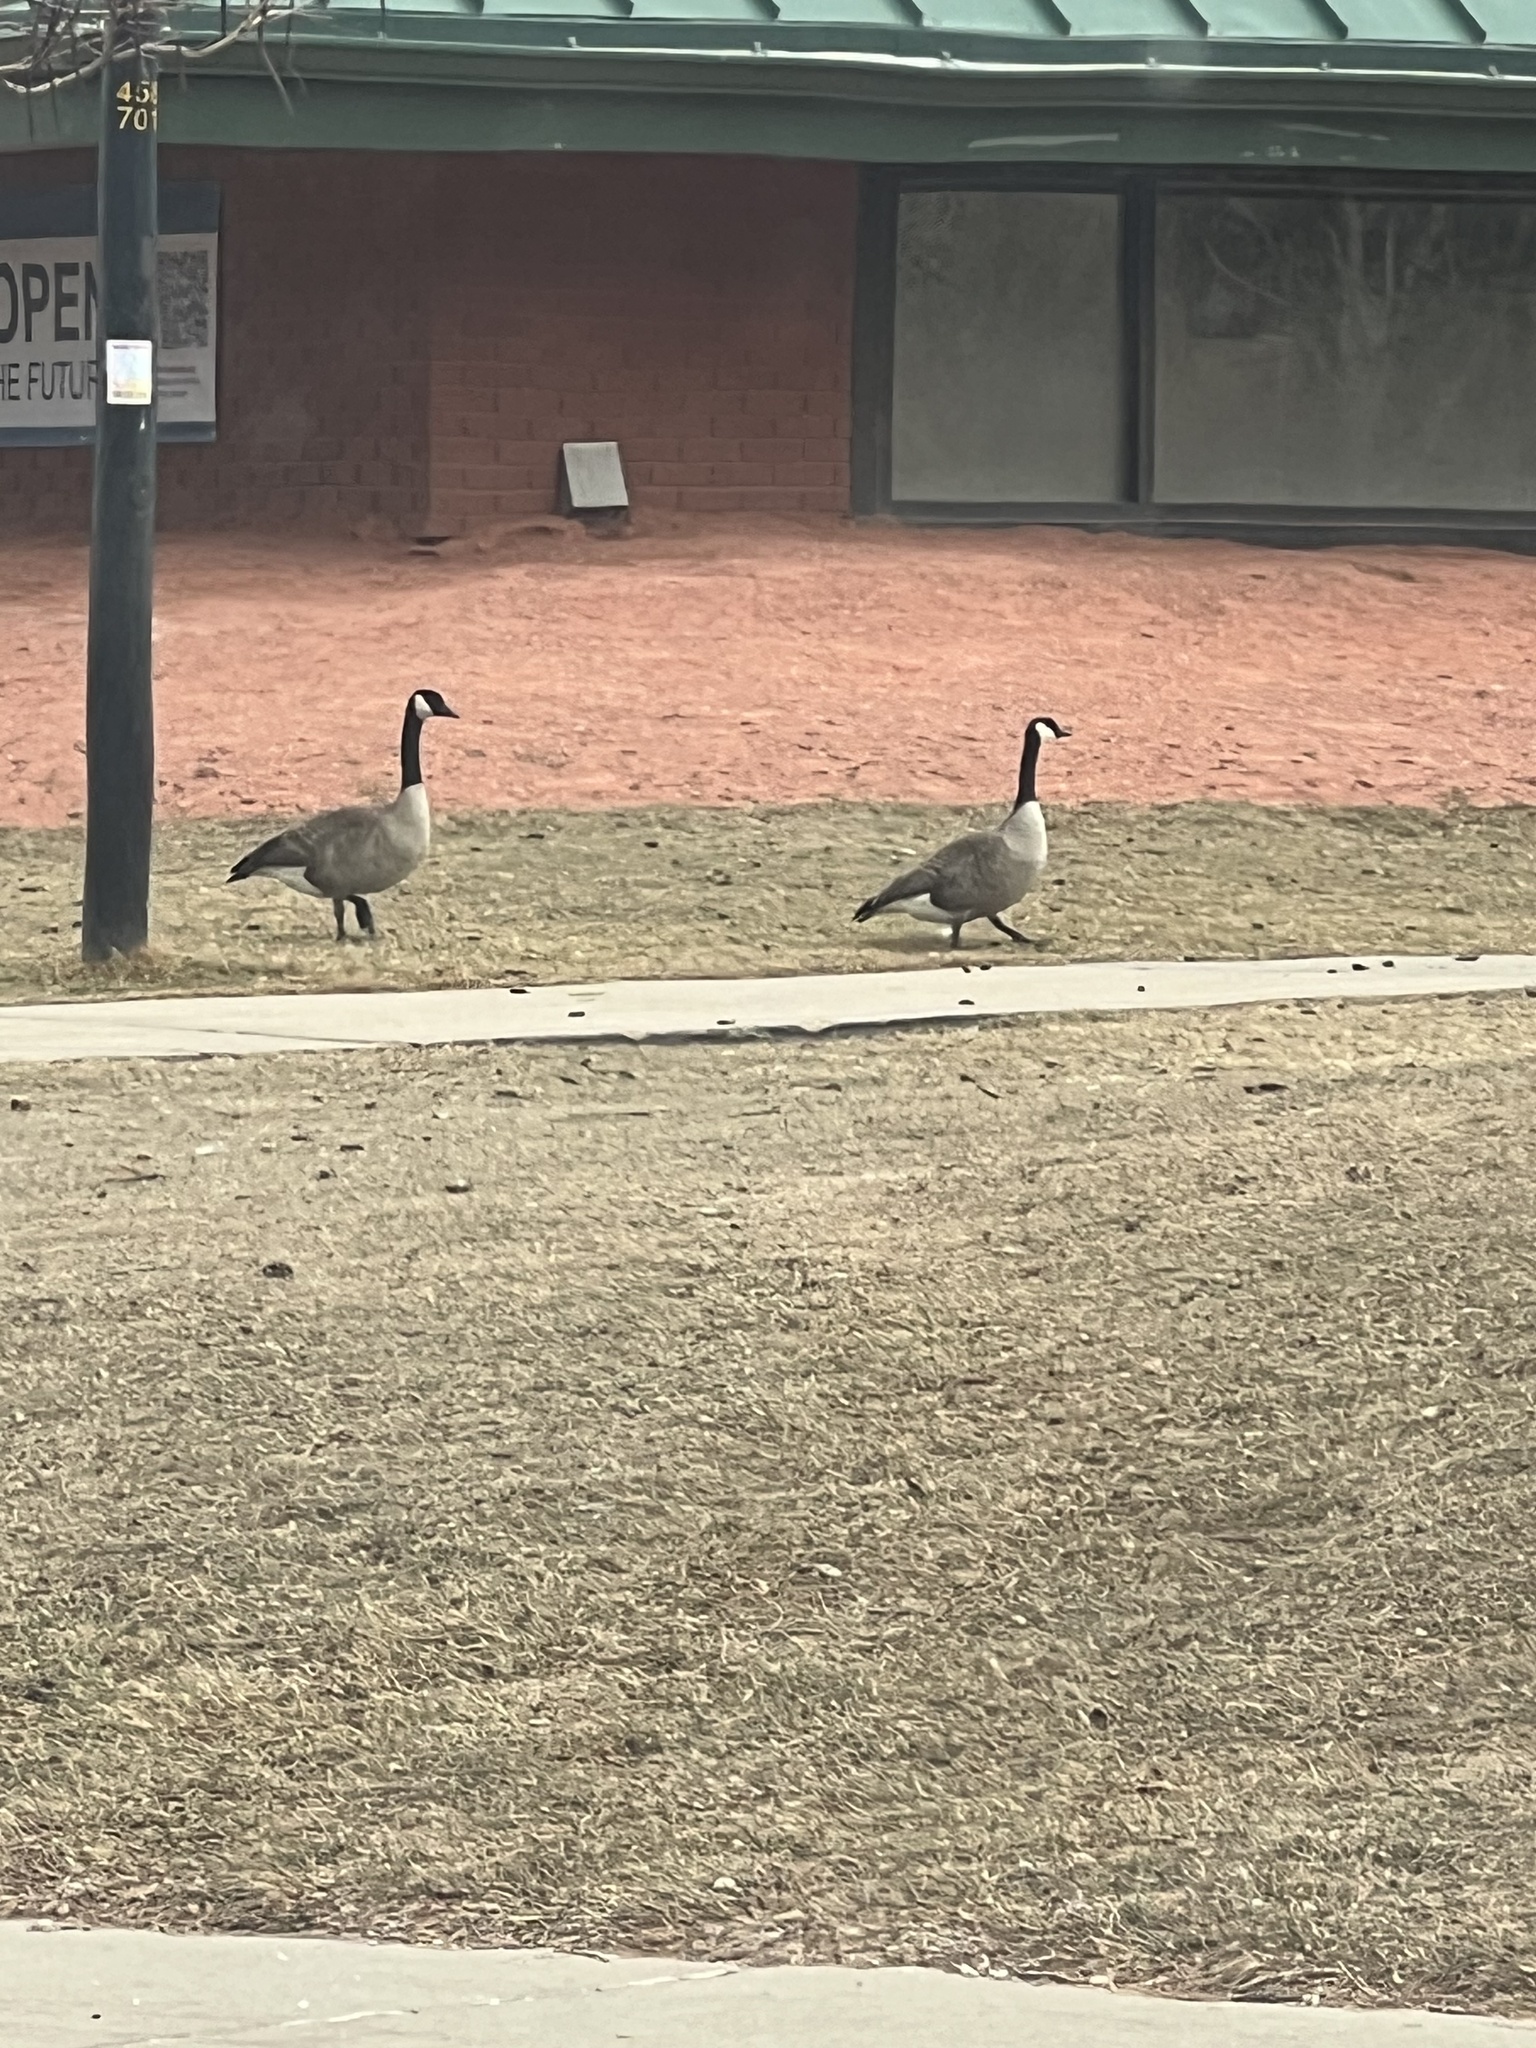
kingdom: Animalia
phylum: Chordata
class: Aves
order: Anseriformes
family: Anatidae
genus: Branta
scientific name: Branta canadensis
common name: Canada goose
